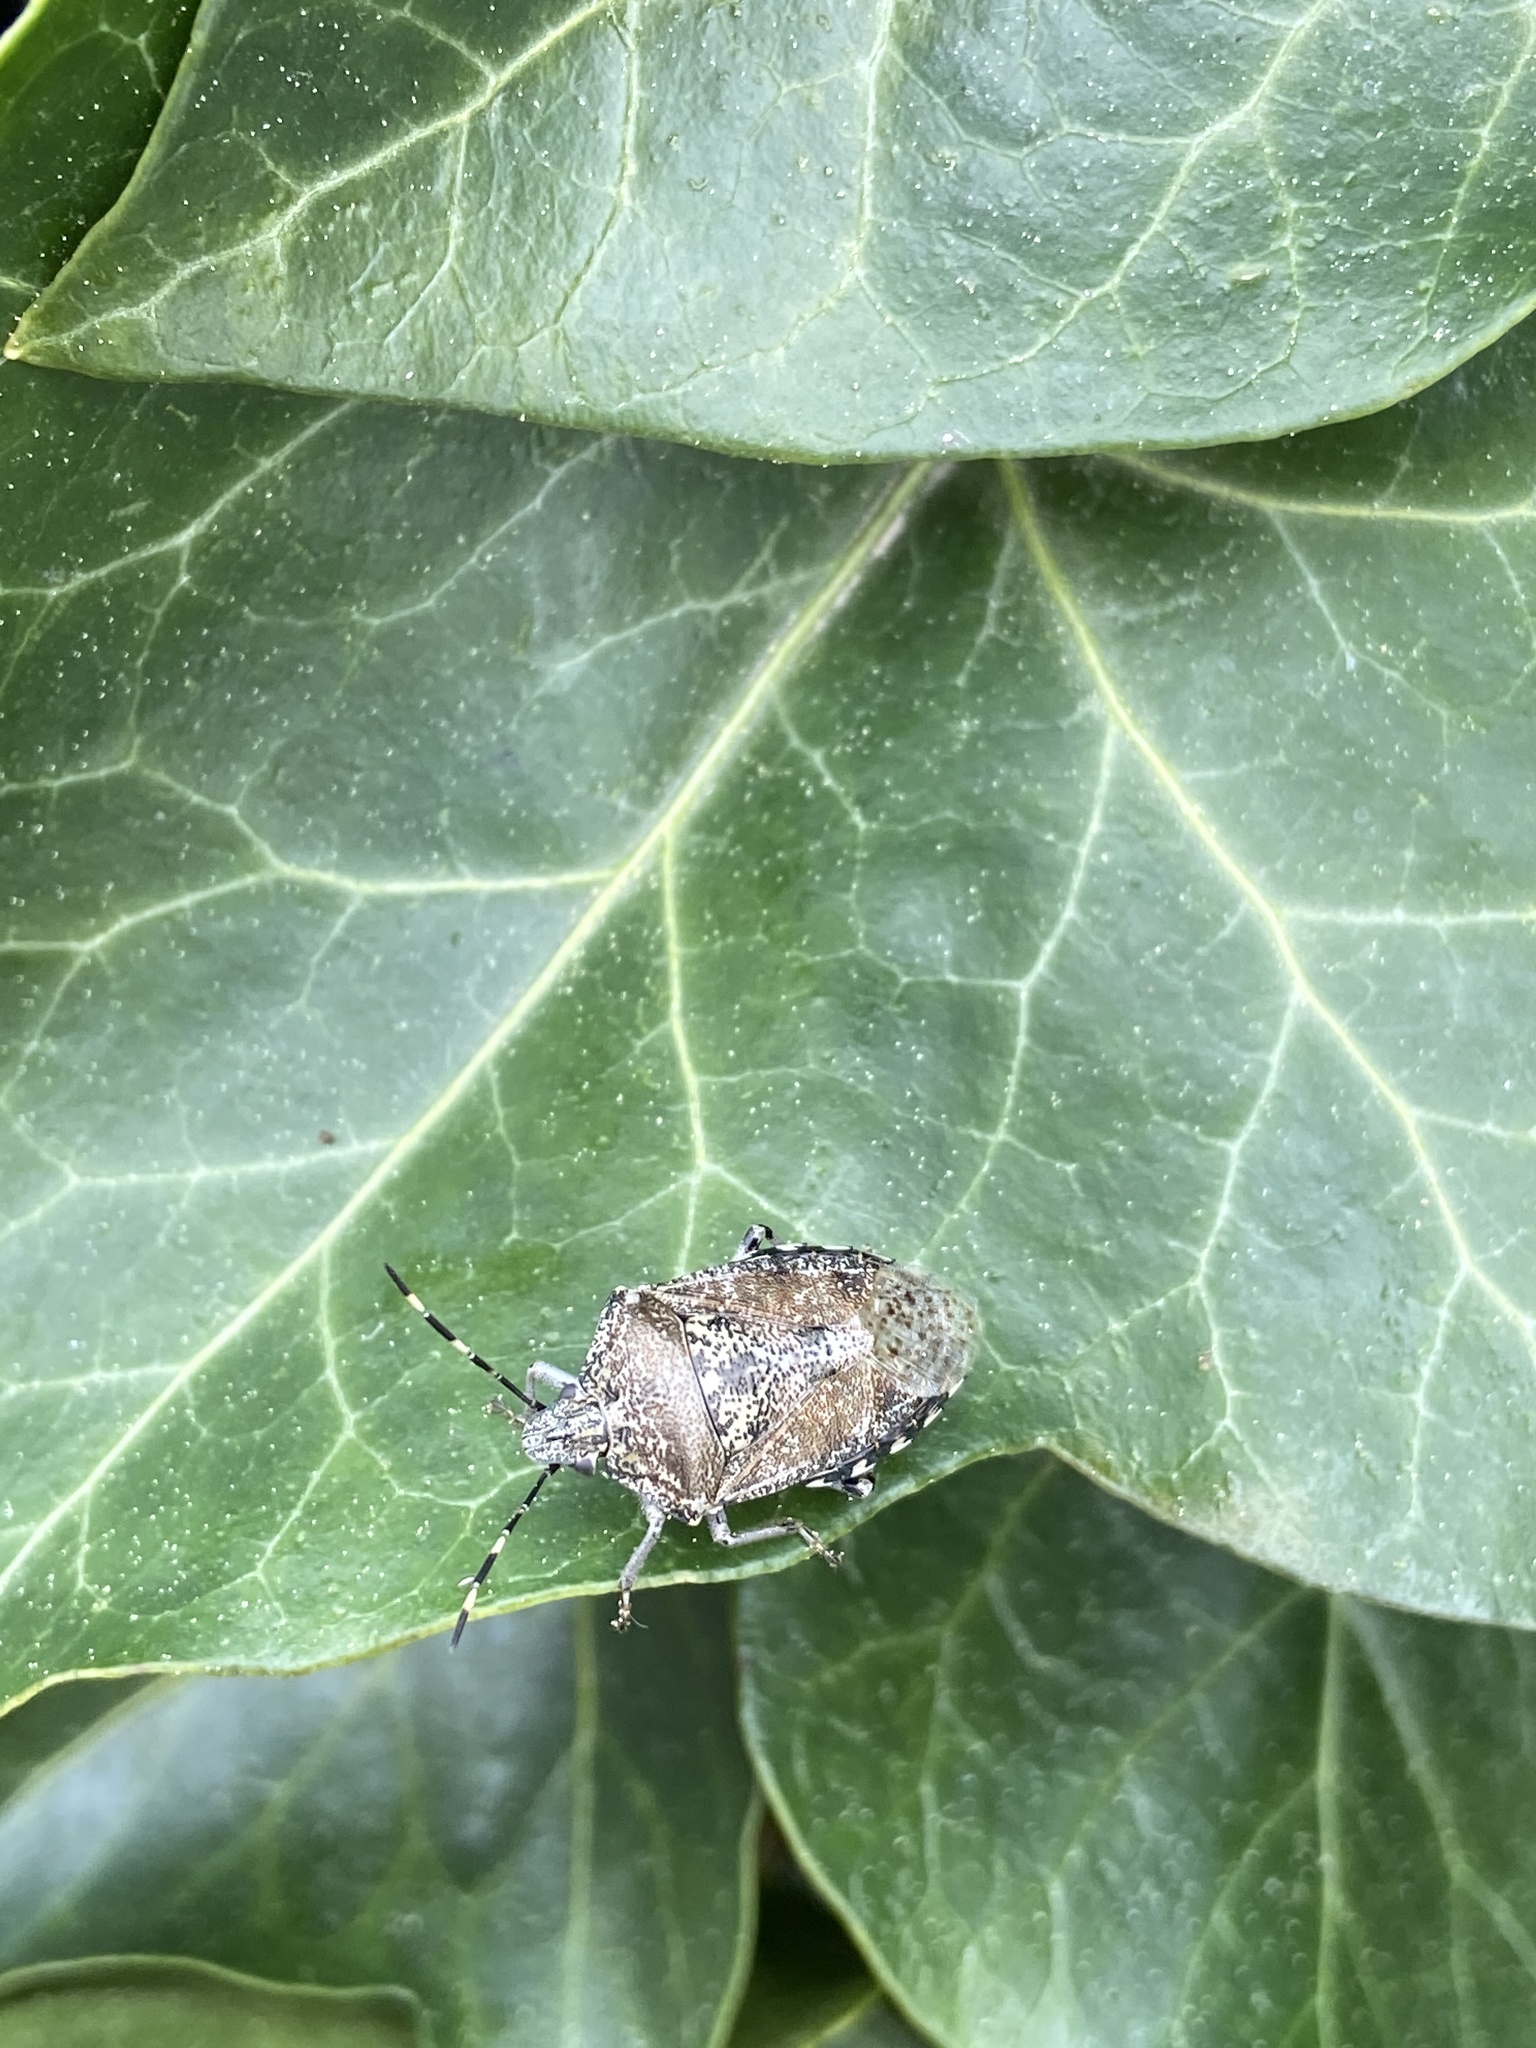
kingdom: Animalia
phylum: Arthropoda
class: Insecta
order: Hemiptera
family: Pentatomidae
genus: Rhaphigaster
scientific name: Rhaphigaster nebulosa
